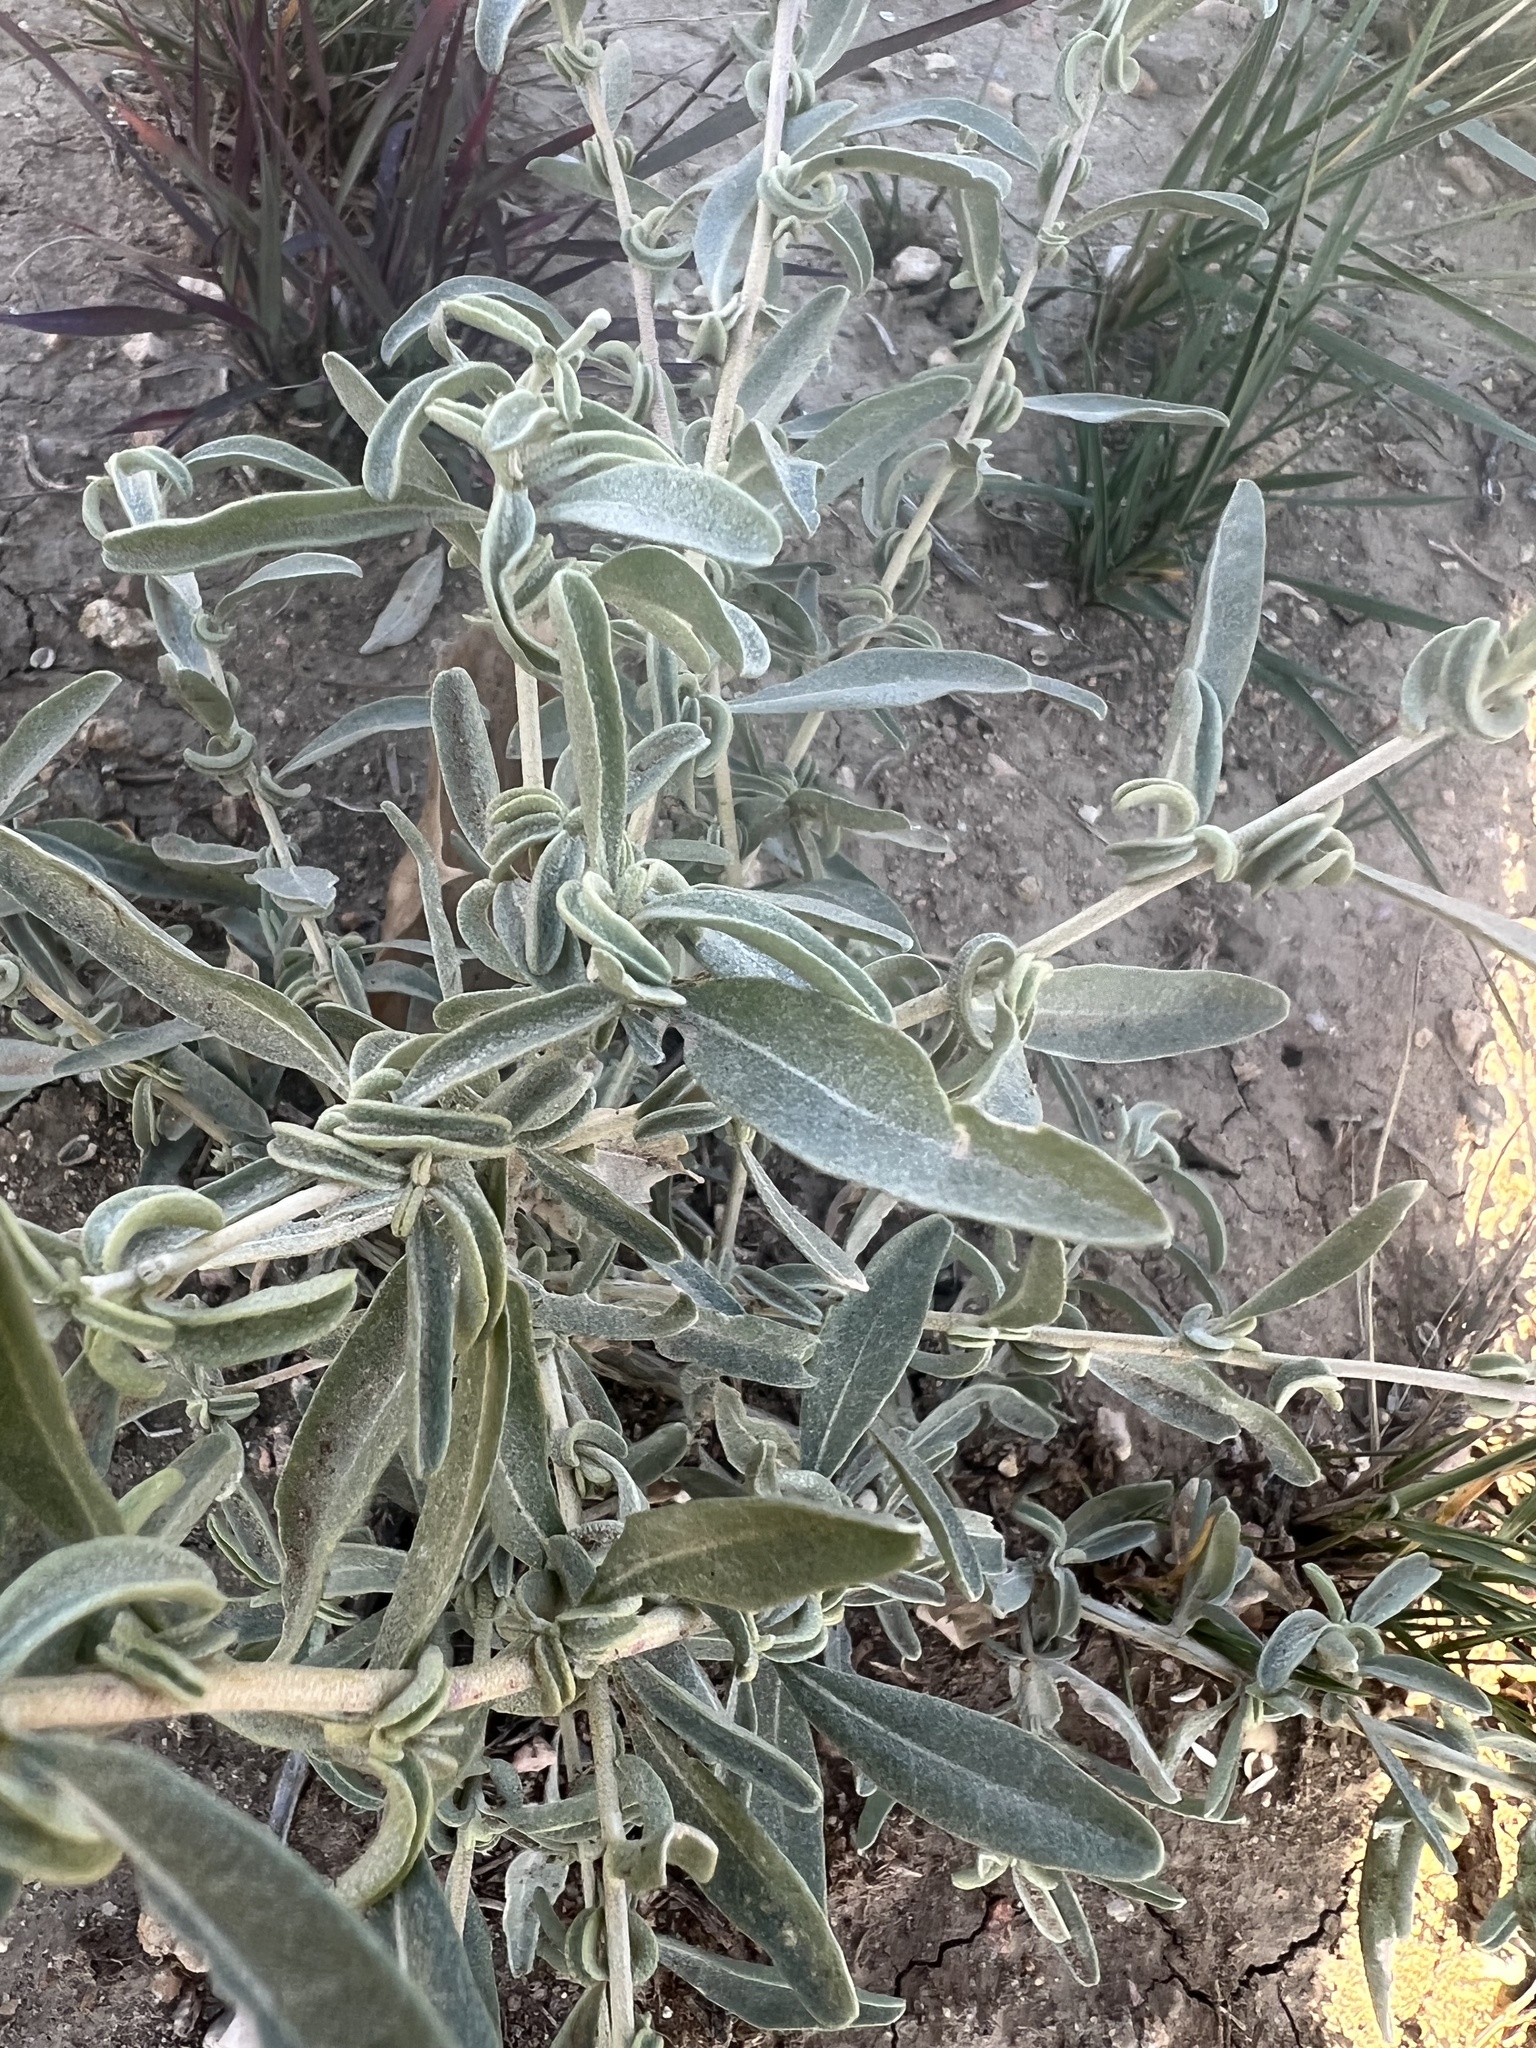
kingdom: Plantae
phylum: Tracheophyta
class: Magnoliopsida
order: Caryophyllales
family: Amaranthaceae
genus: Atriplex
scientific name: Atriplex canescens
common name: Four-wing saltbush
